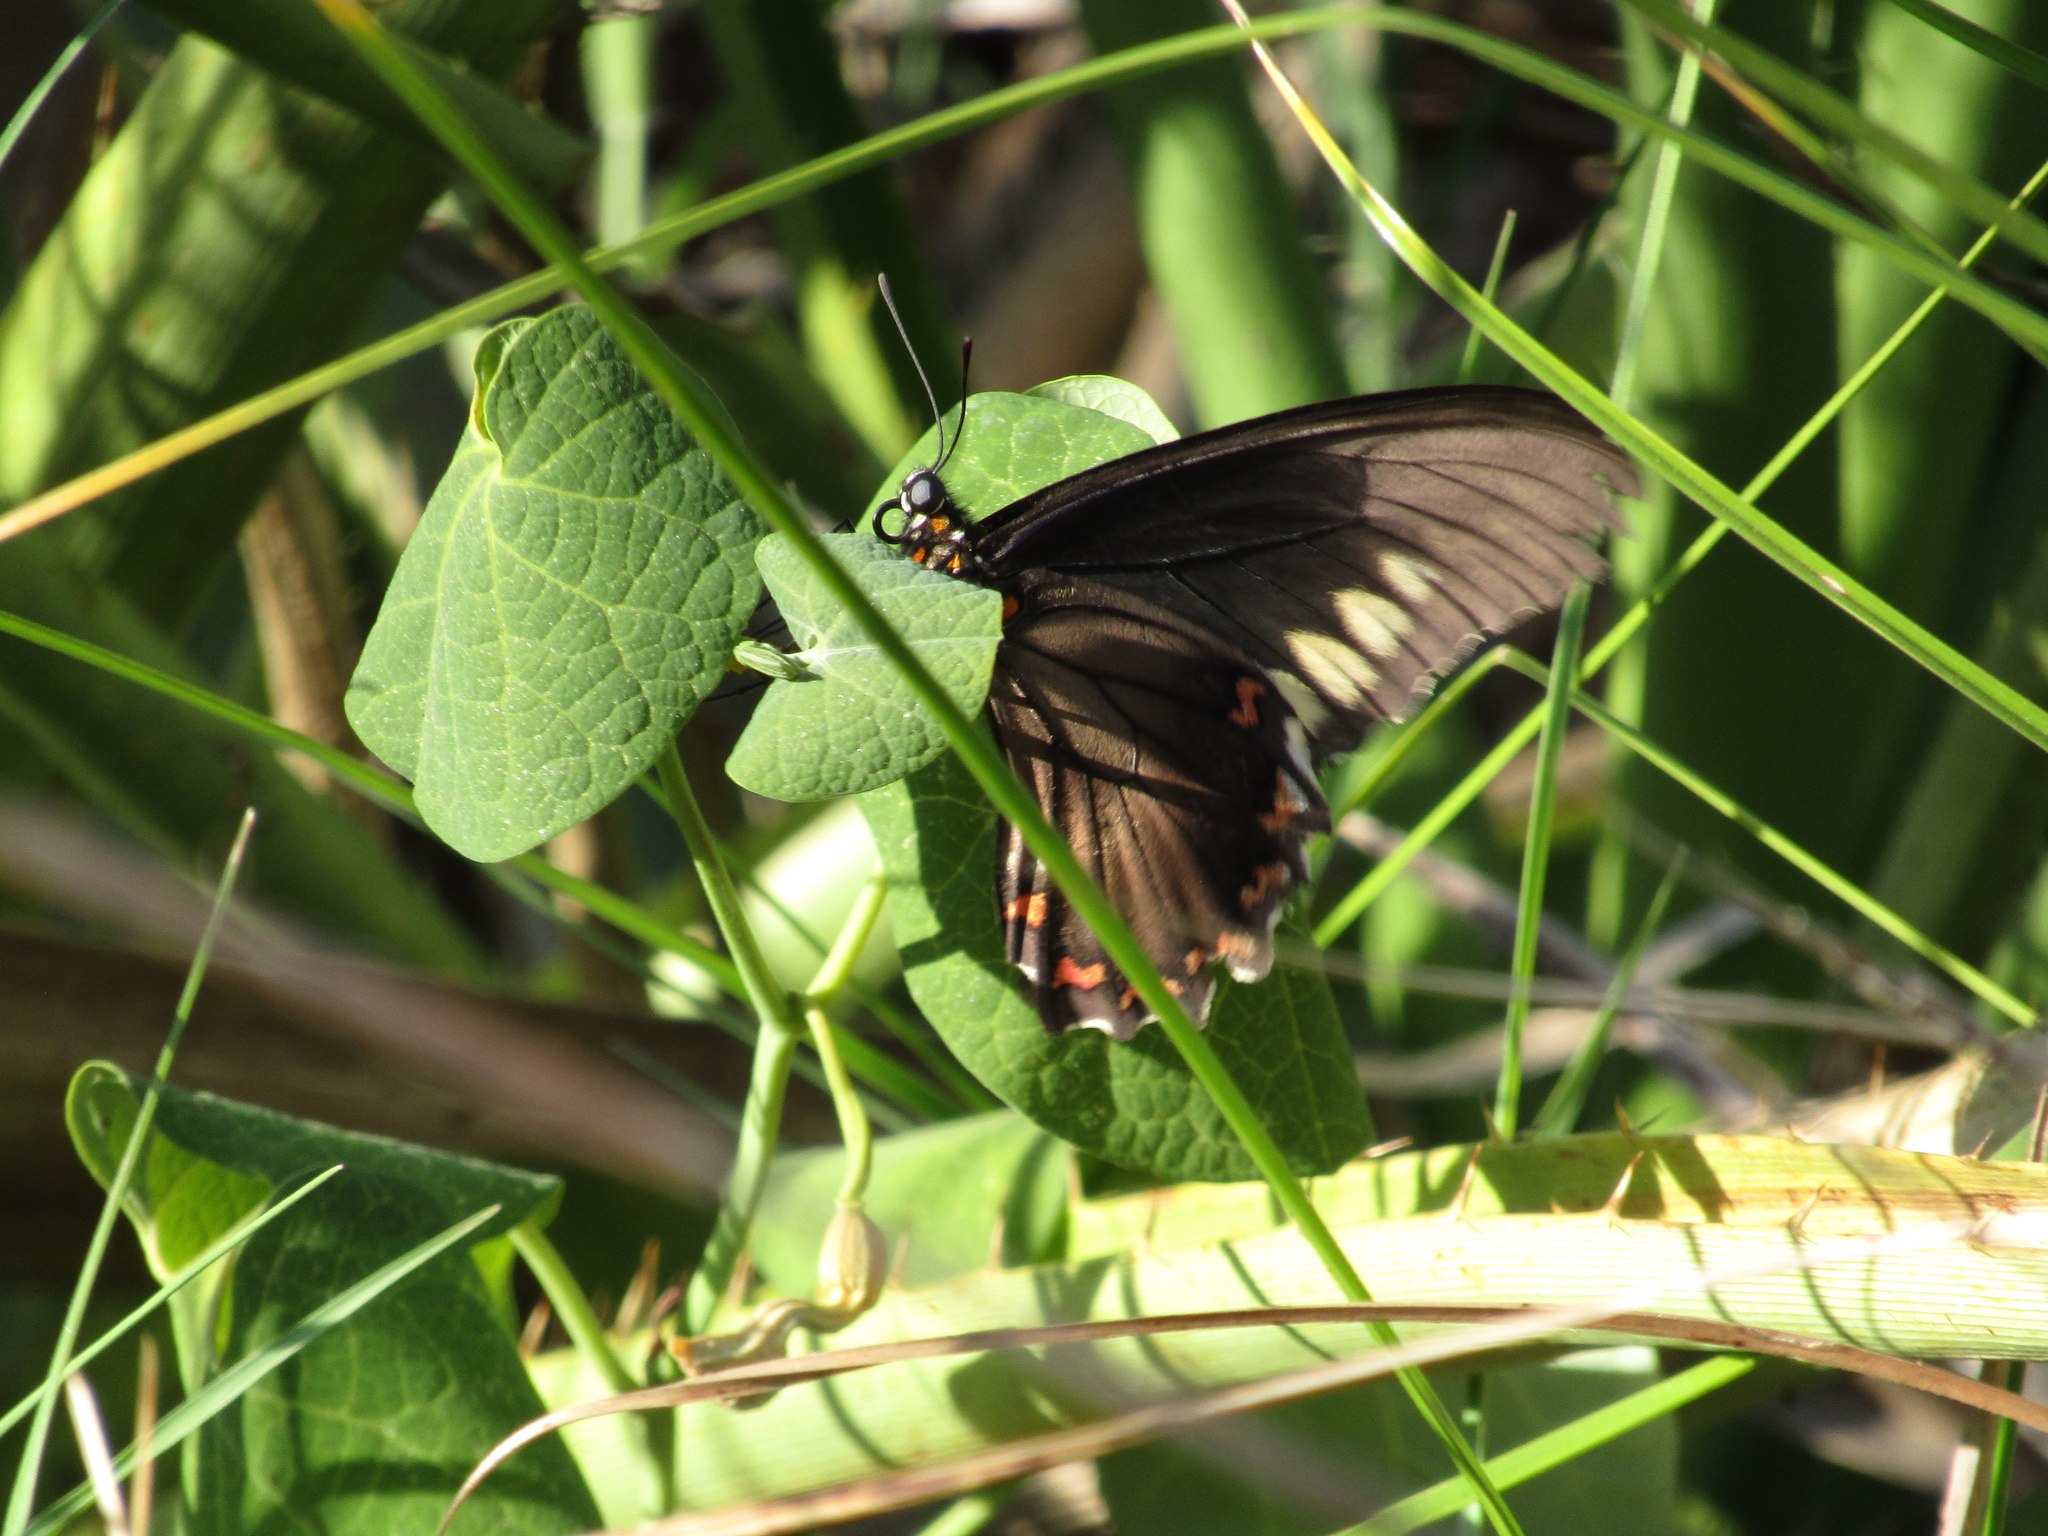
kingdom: Animalia
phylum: Arthropoda
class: Insecta
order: Lepidoptera
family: Papilionidae
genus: Battus
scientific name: Battus polydamas
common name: Polydamas swallowtail
